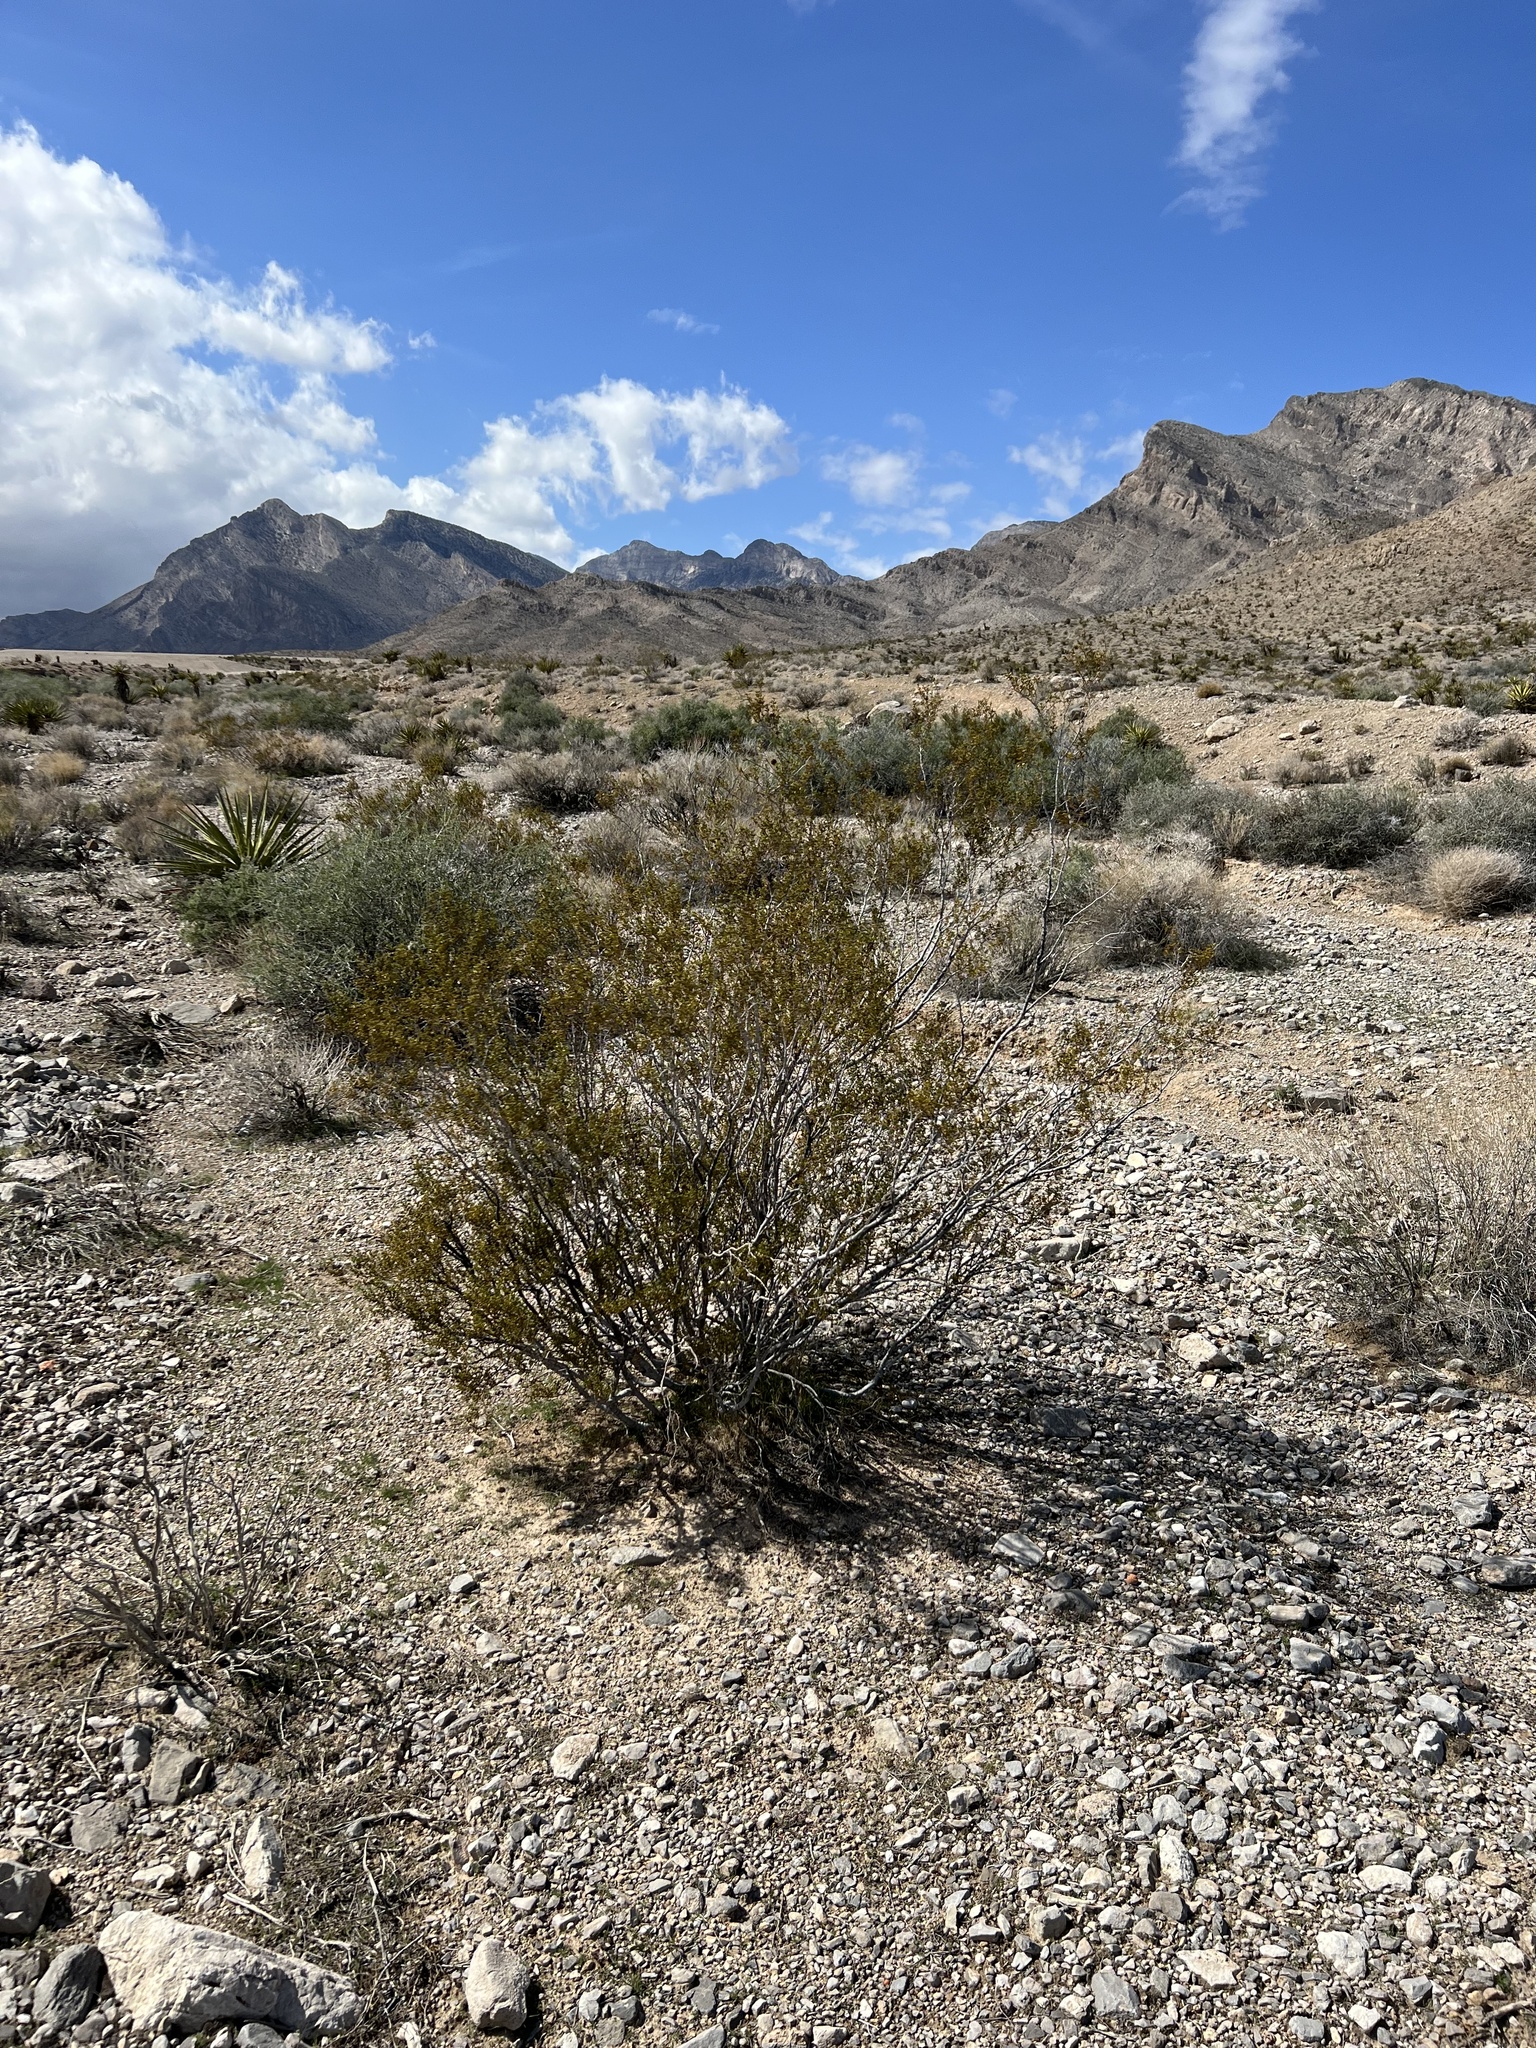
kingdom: Plantae
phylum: Tracheophyta
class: Magnoliopsida
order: Zygophyllales
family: Zygophyllaceae
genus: Larrea
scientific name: Larrea tridentata
